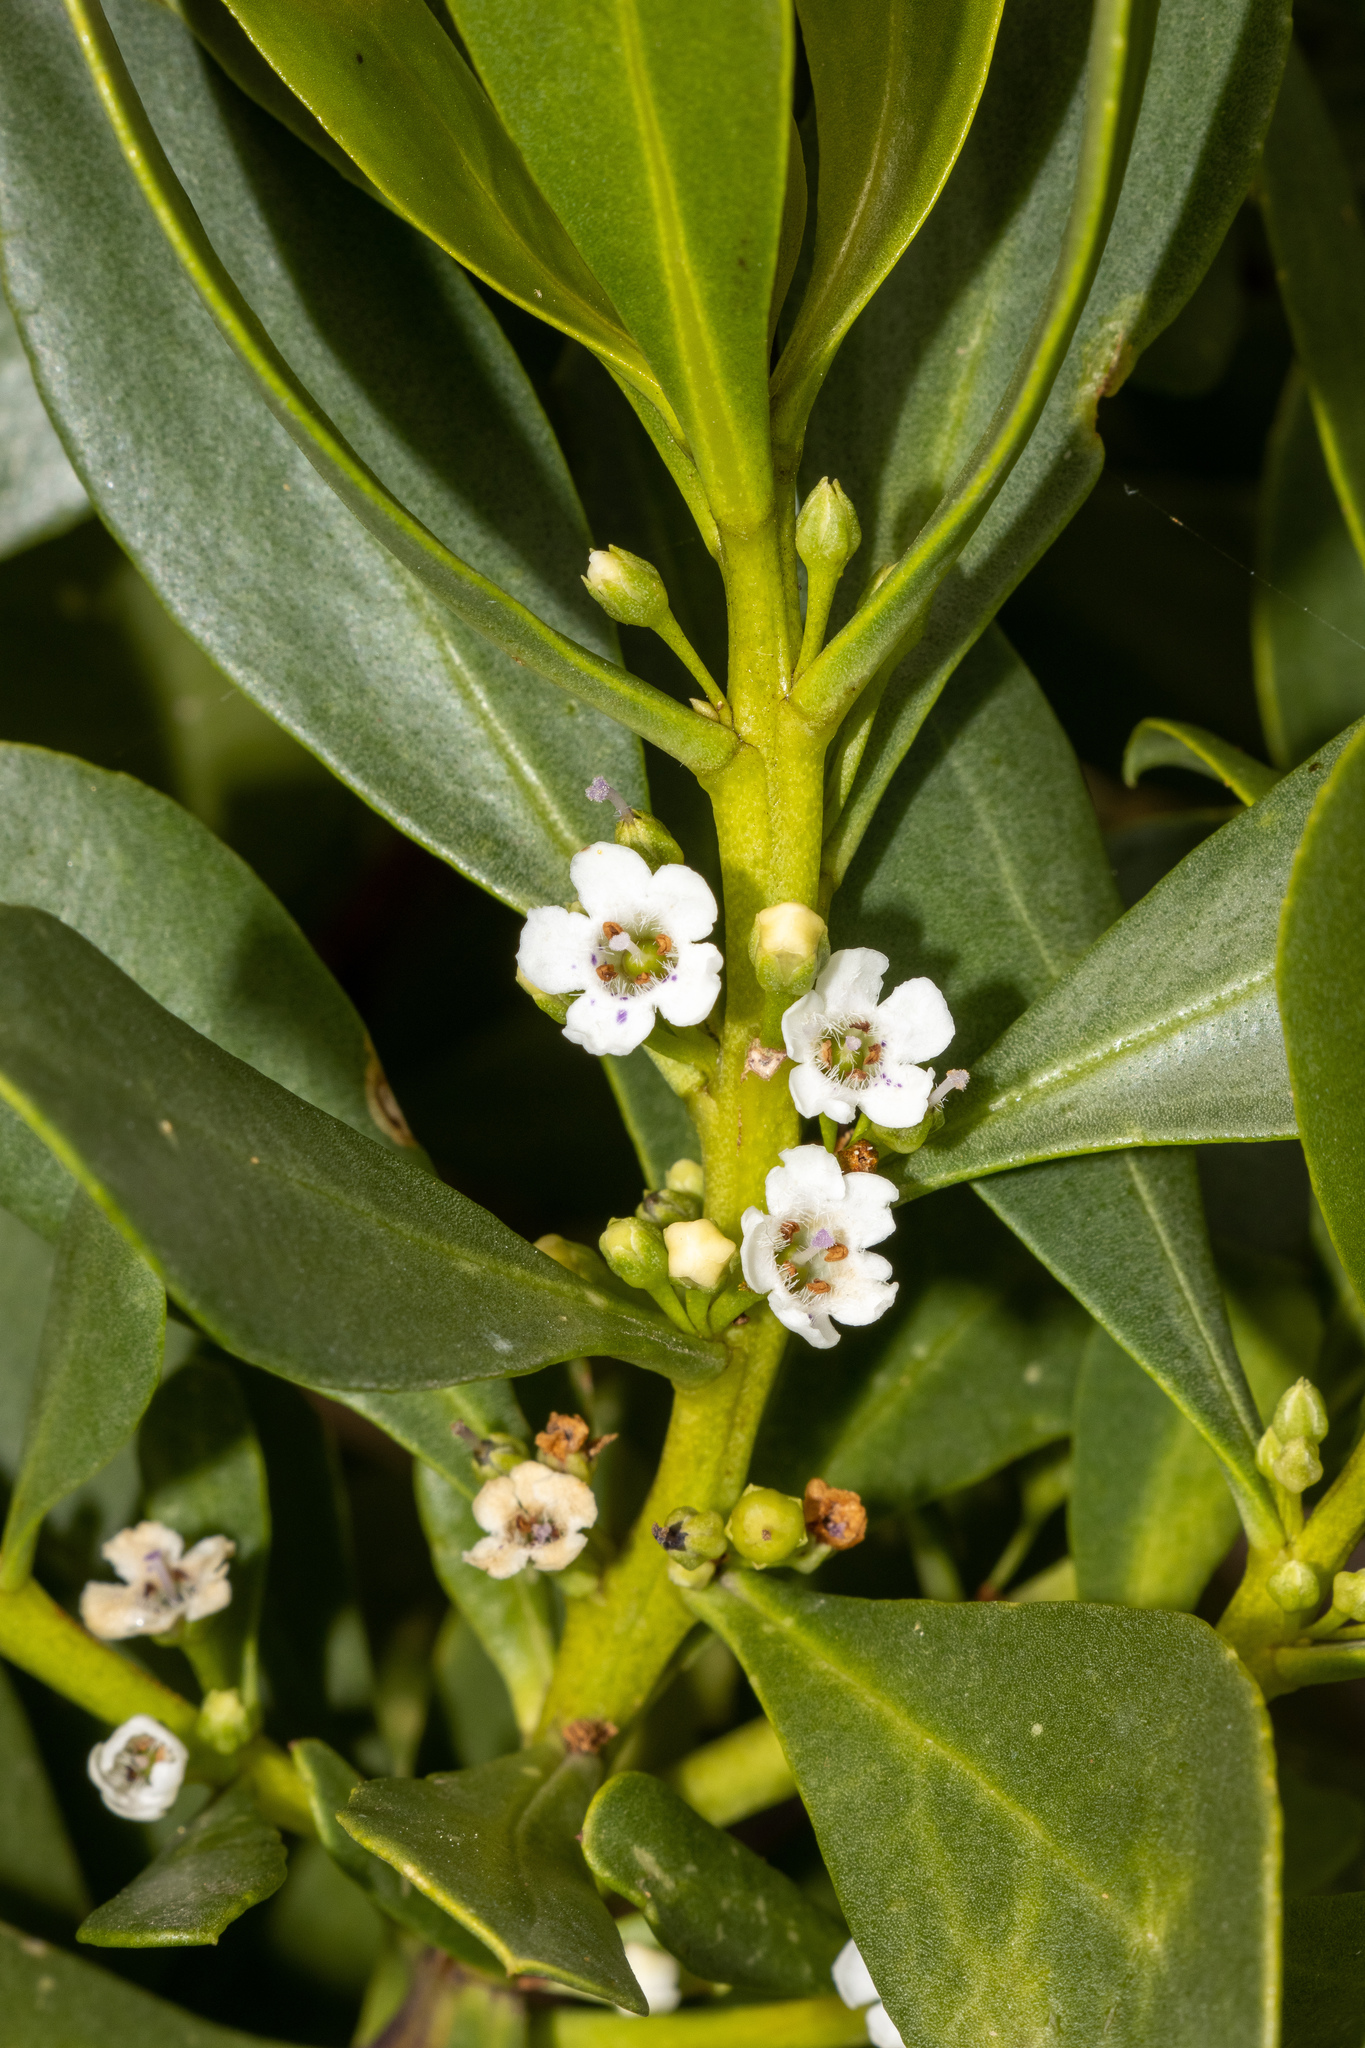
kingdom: Plantae
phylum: Tracheophyta
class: Magnoliopsida
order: Lamiales
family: Scrophulariaceae
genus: Myoporum
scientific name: Myoporum insulare
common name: Common boobialla
